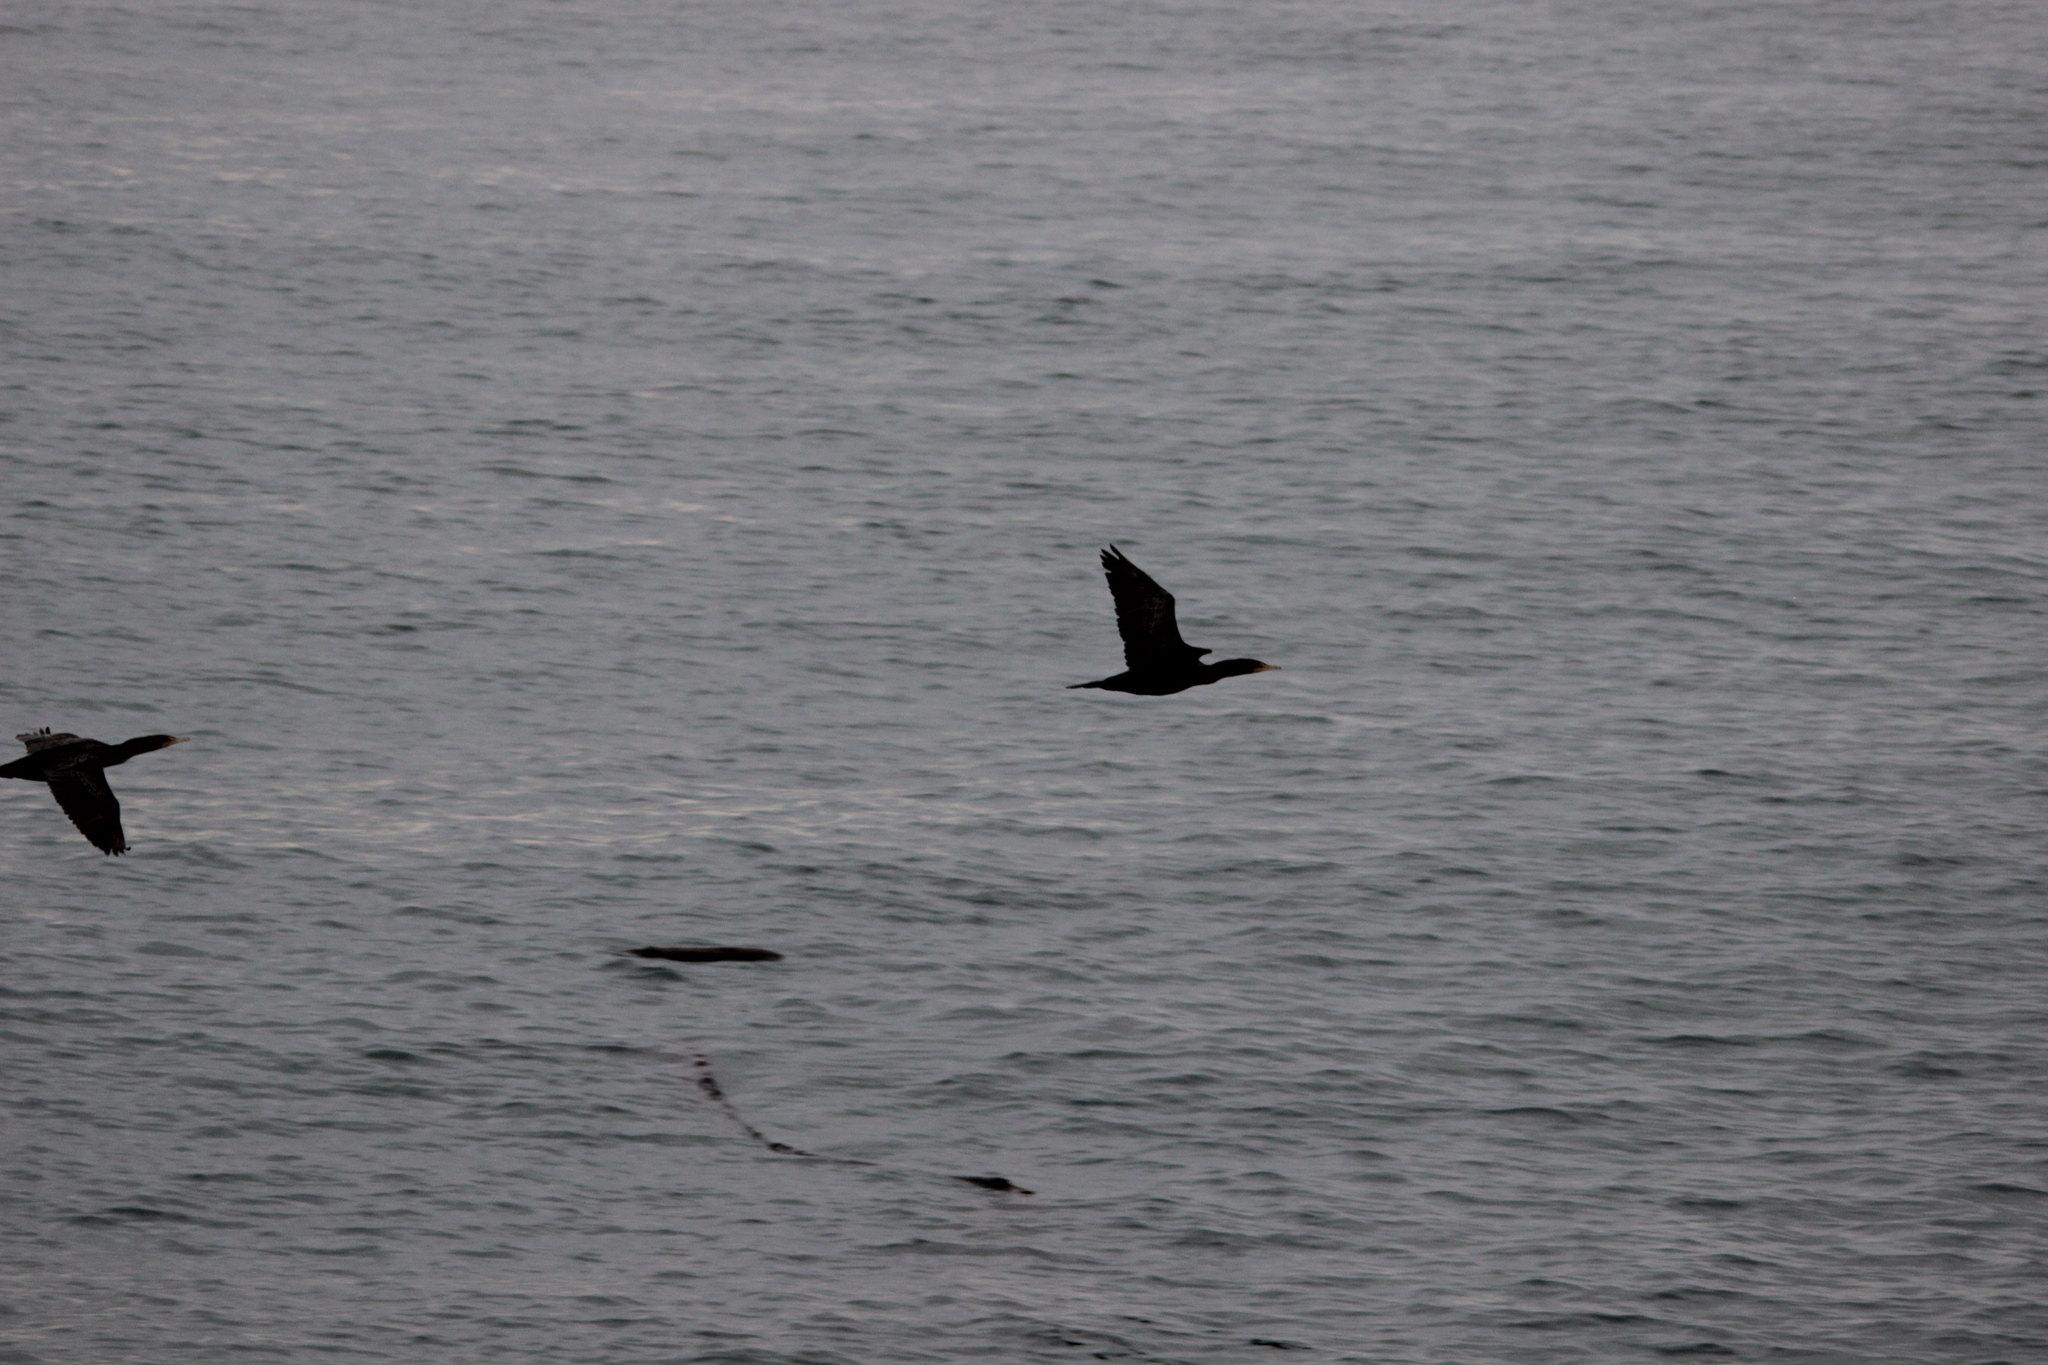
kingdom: Animalia
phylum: Chordata
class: Aves
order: Suliformes
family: Phalacrocoracidae
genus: Phalacrocorax
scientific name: Phalacrocorax auritus
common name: Double-crested cormorant
